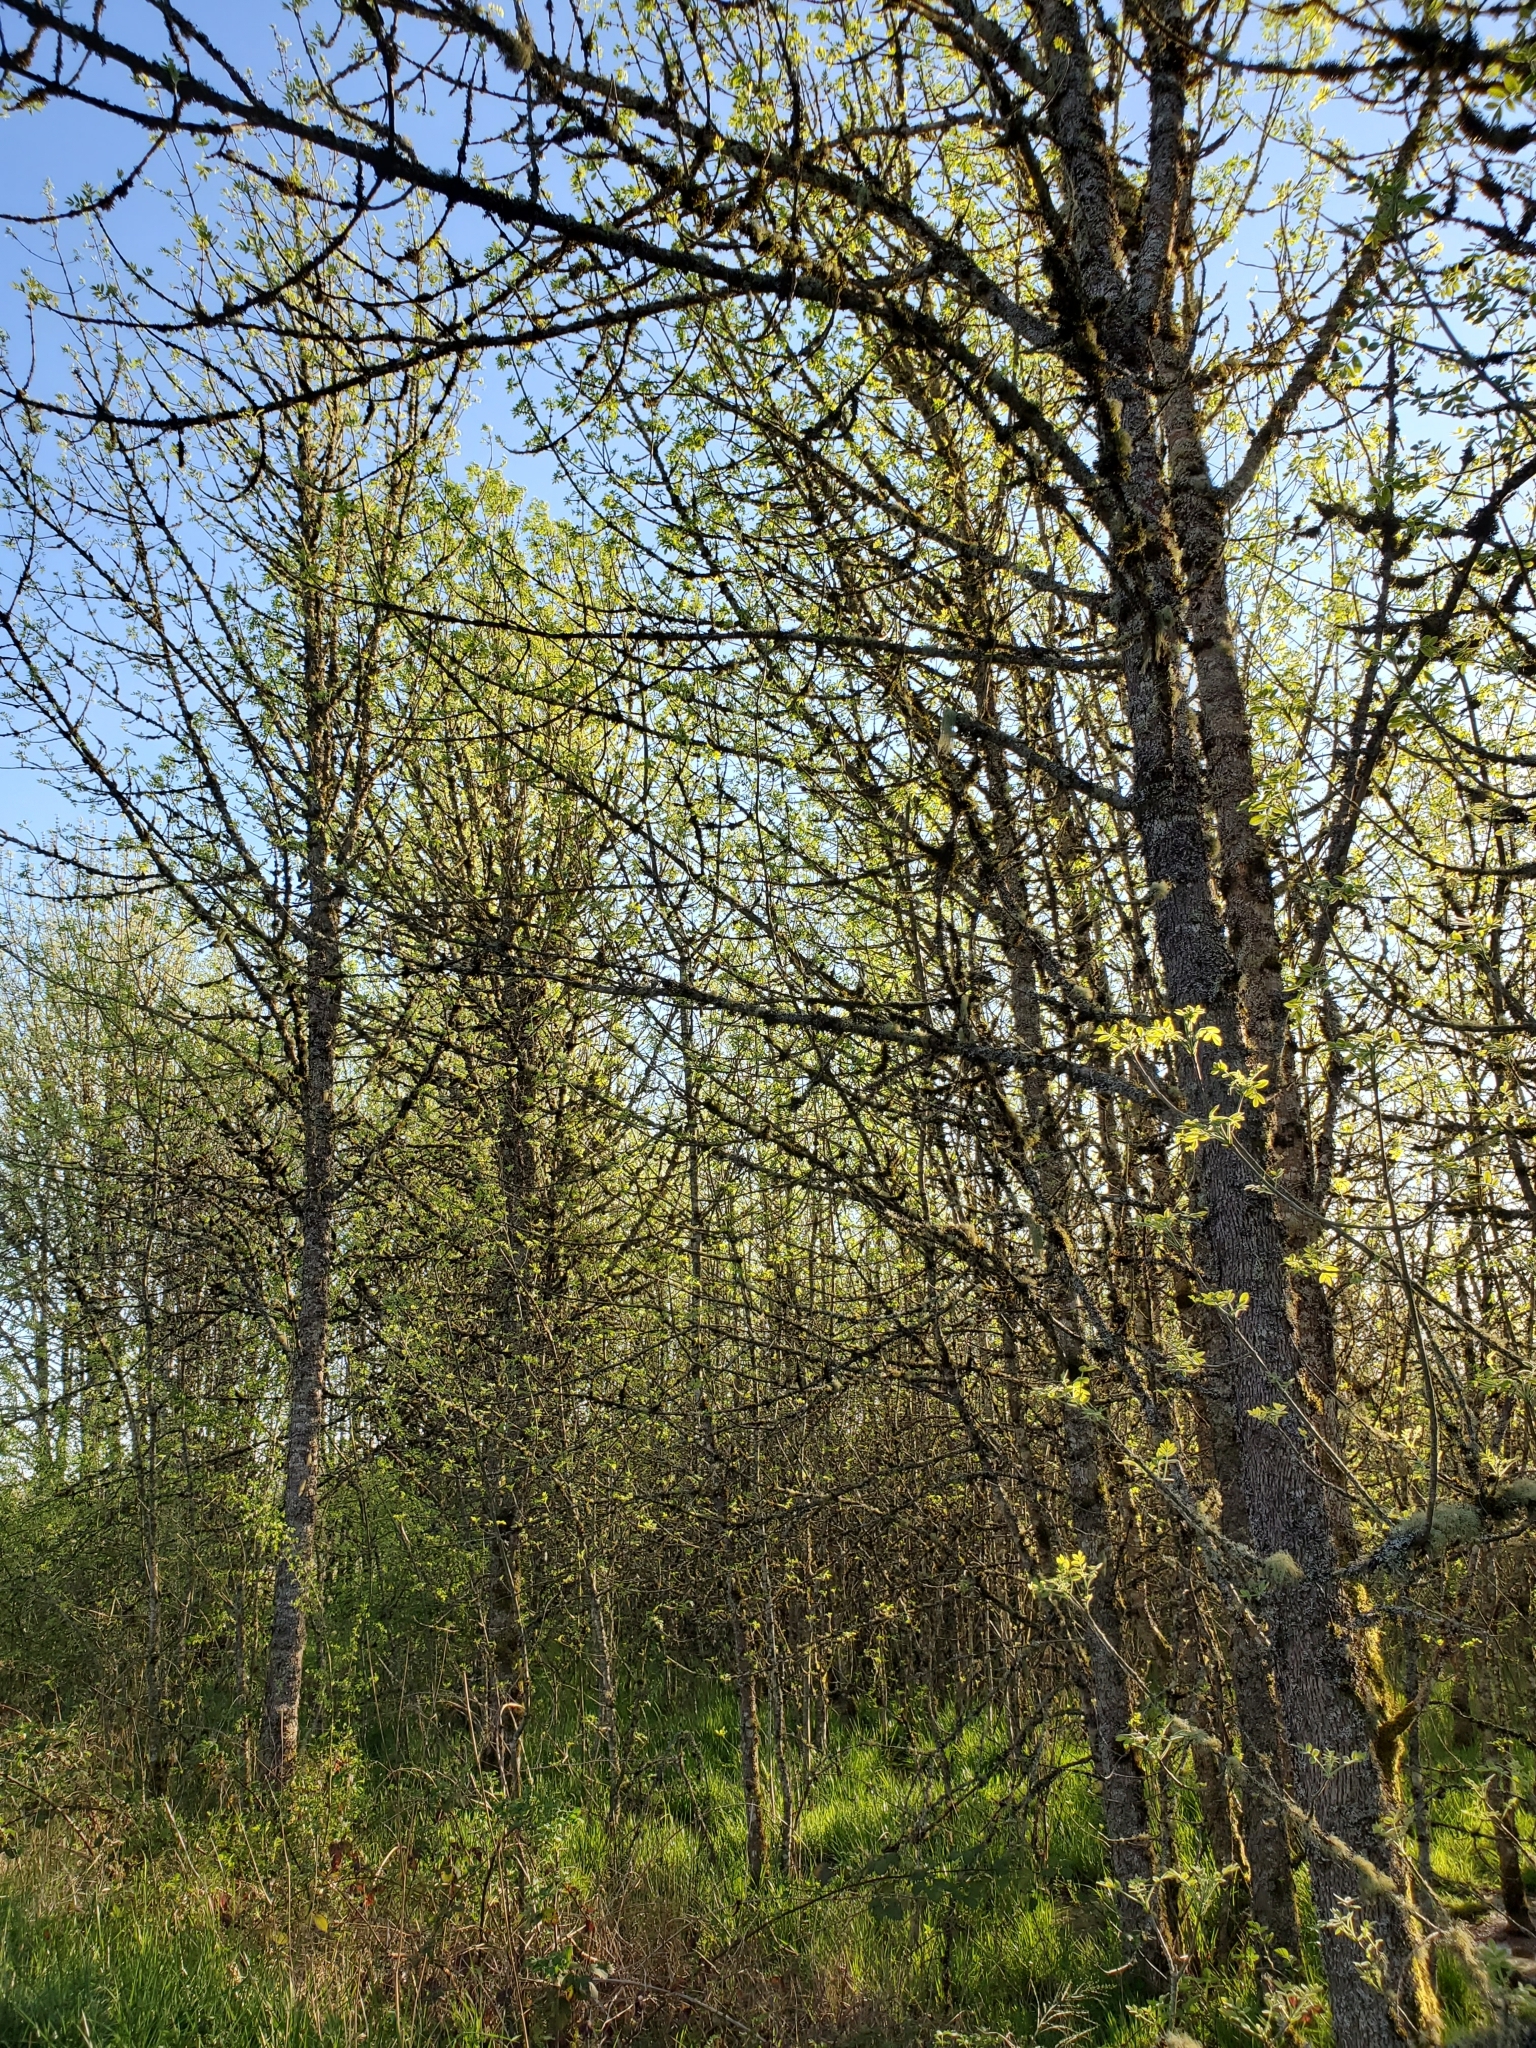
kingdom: Plantae
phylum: Tracheophyta
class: Magnoliopsida
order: Lamiales
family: Oleaceae
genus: Fraxinus
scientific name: Fraxinus latifolia
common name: Oregon ash
